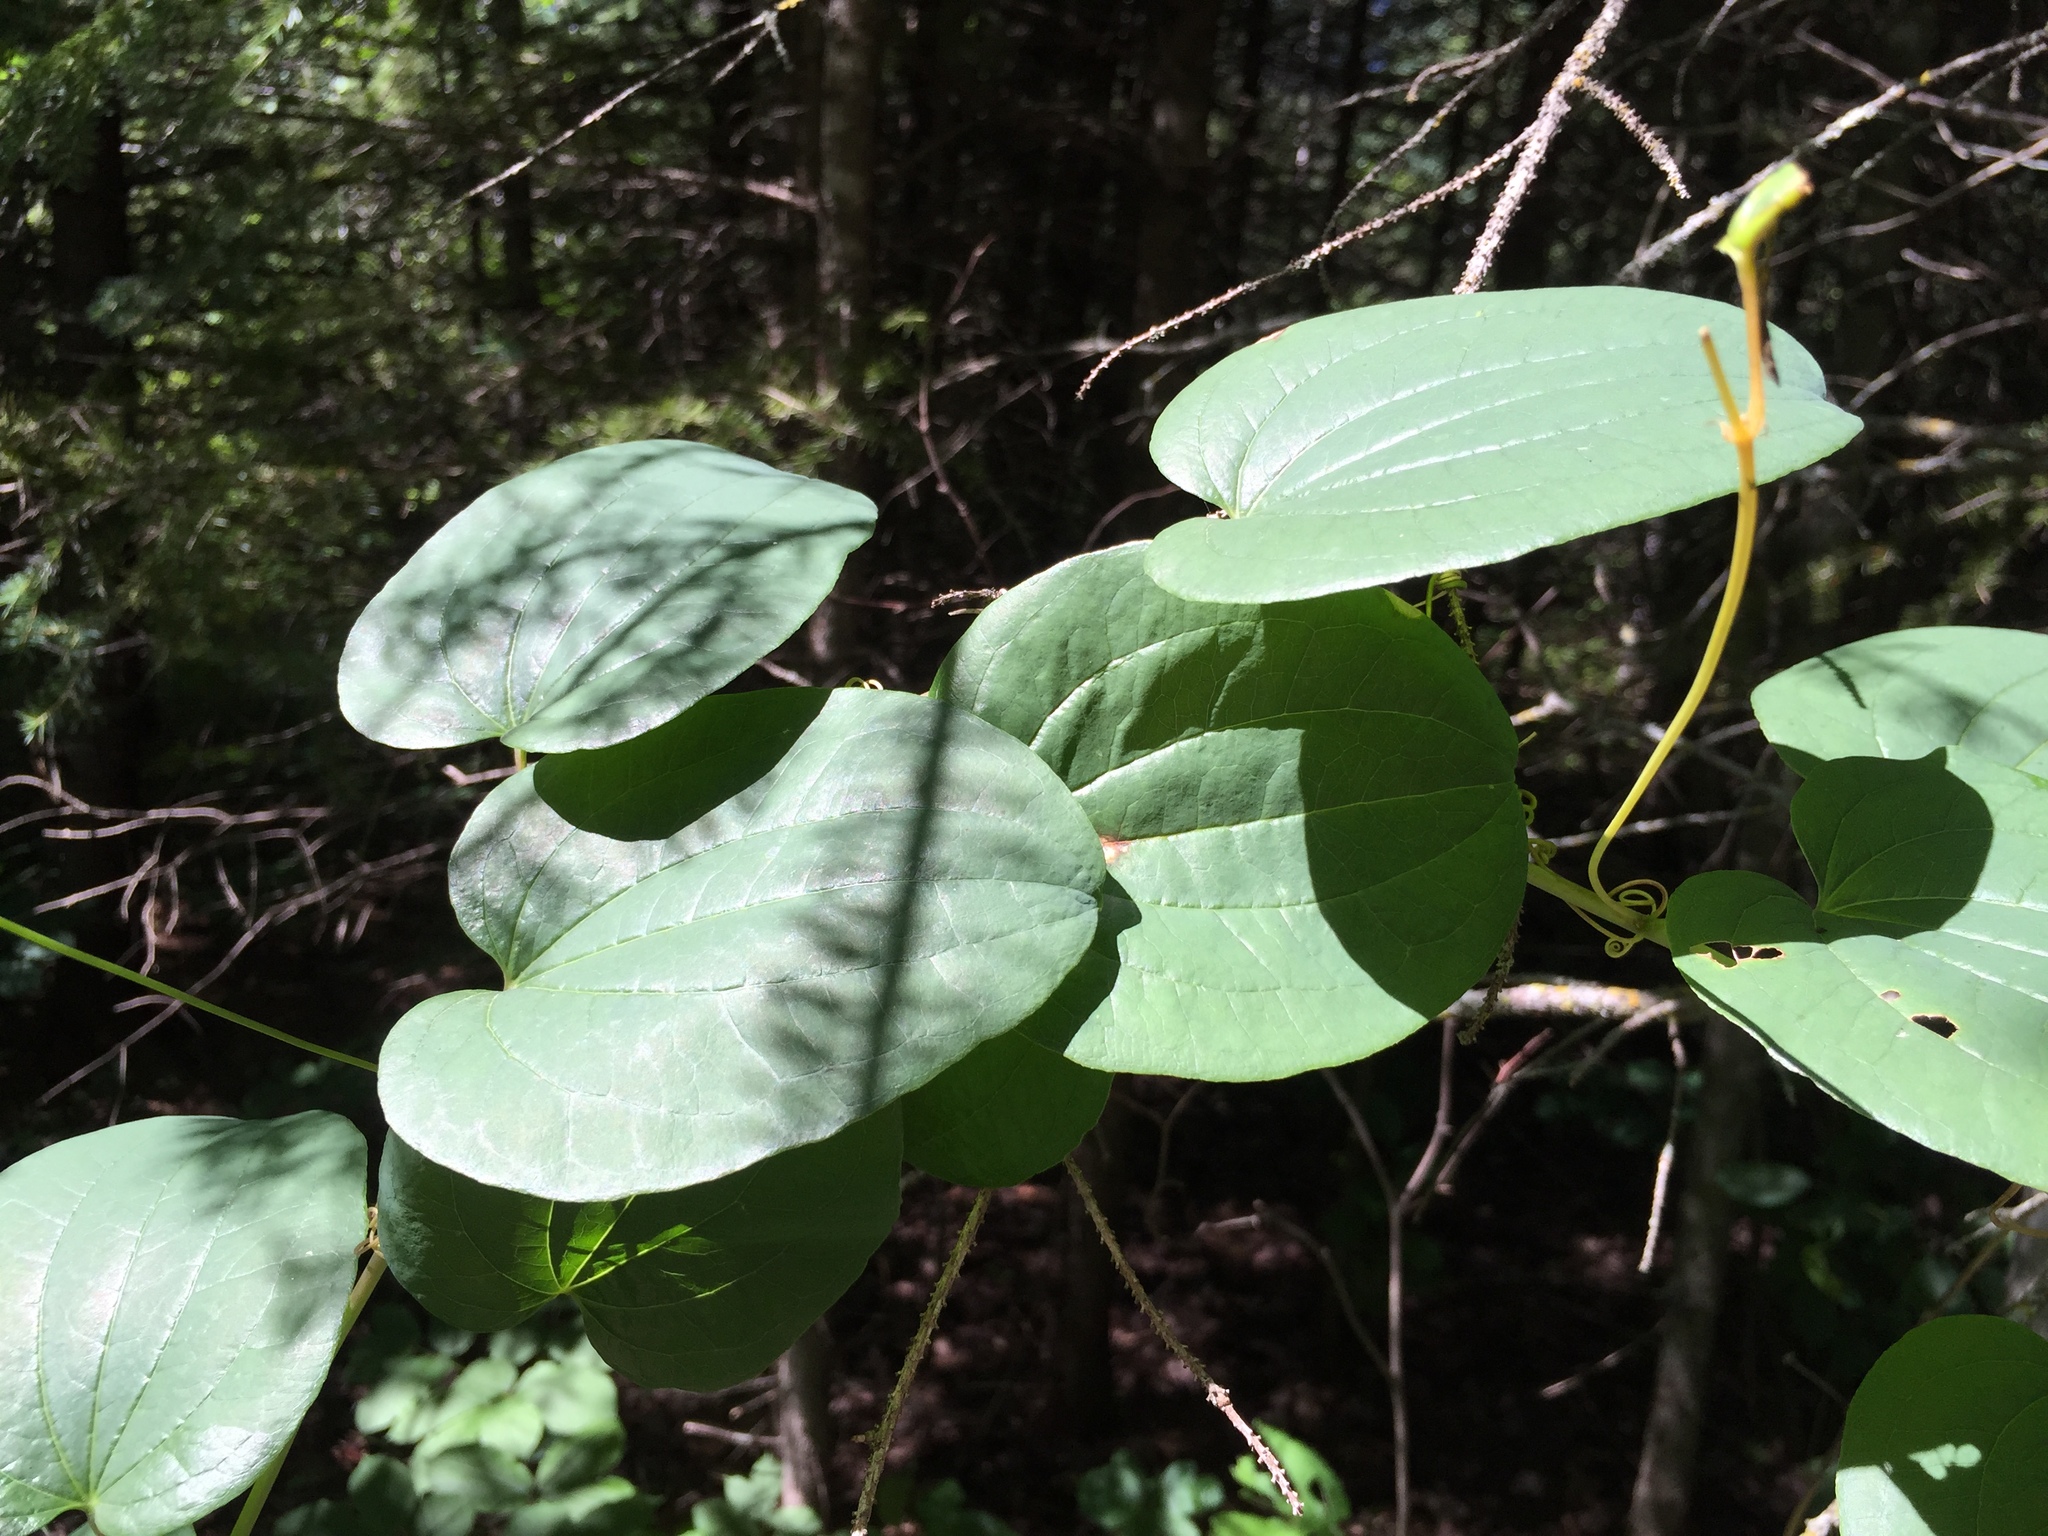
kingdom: Plantae
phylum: Tracheophyta
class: Liliopsida
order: Liliales
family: Smilacaceae
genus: Smilax
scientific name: Smilax lasioneura
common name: Blue ridge carrionflower
